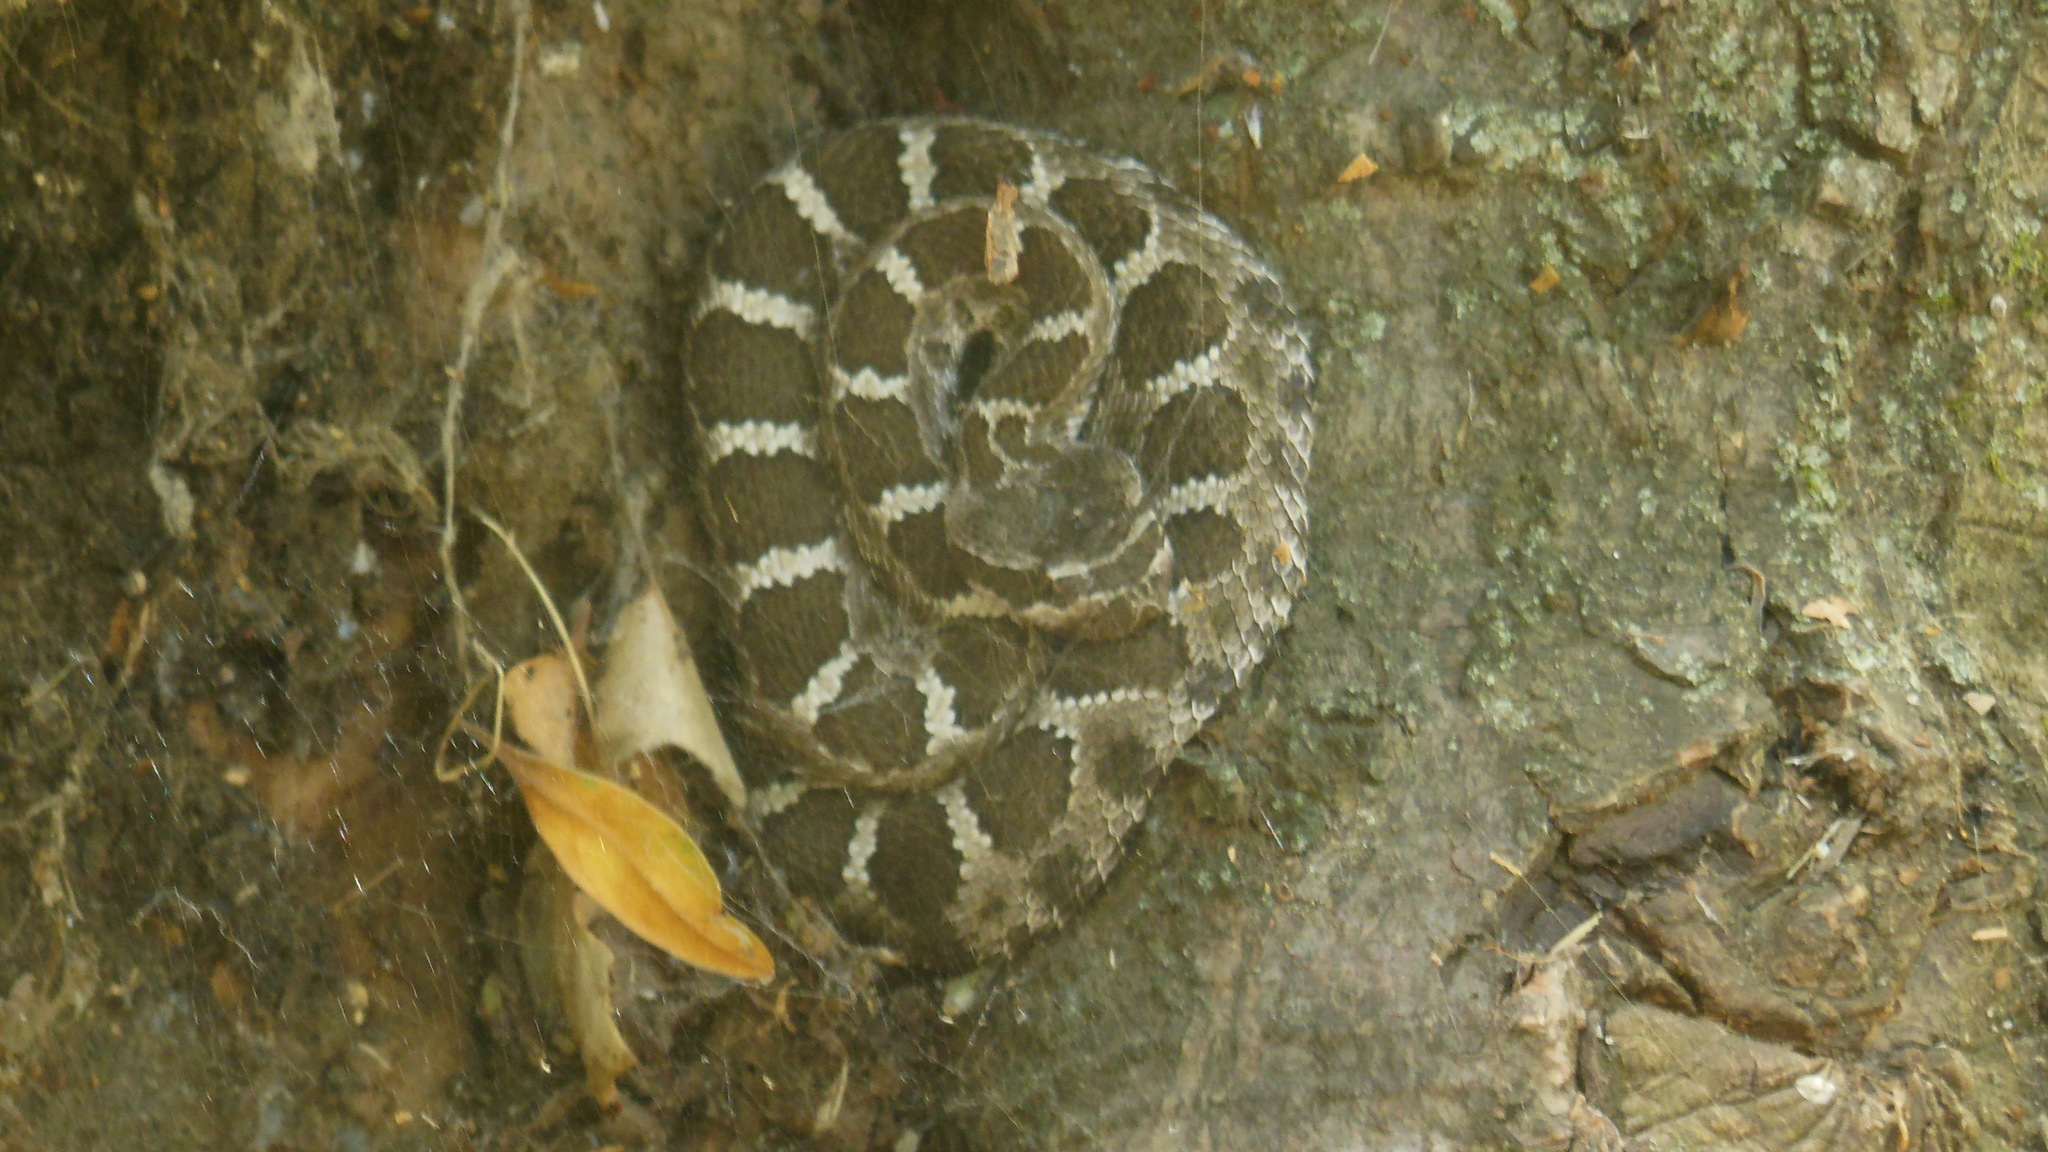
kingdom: Animalia
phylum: Chordata
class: Squamata
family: Viperidae
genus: Crotalus
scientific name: Crotalus oreganus
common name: Abyssus
